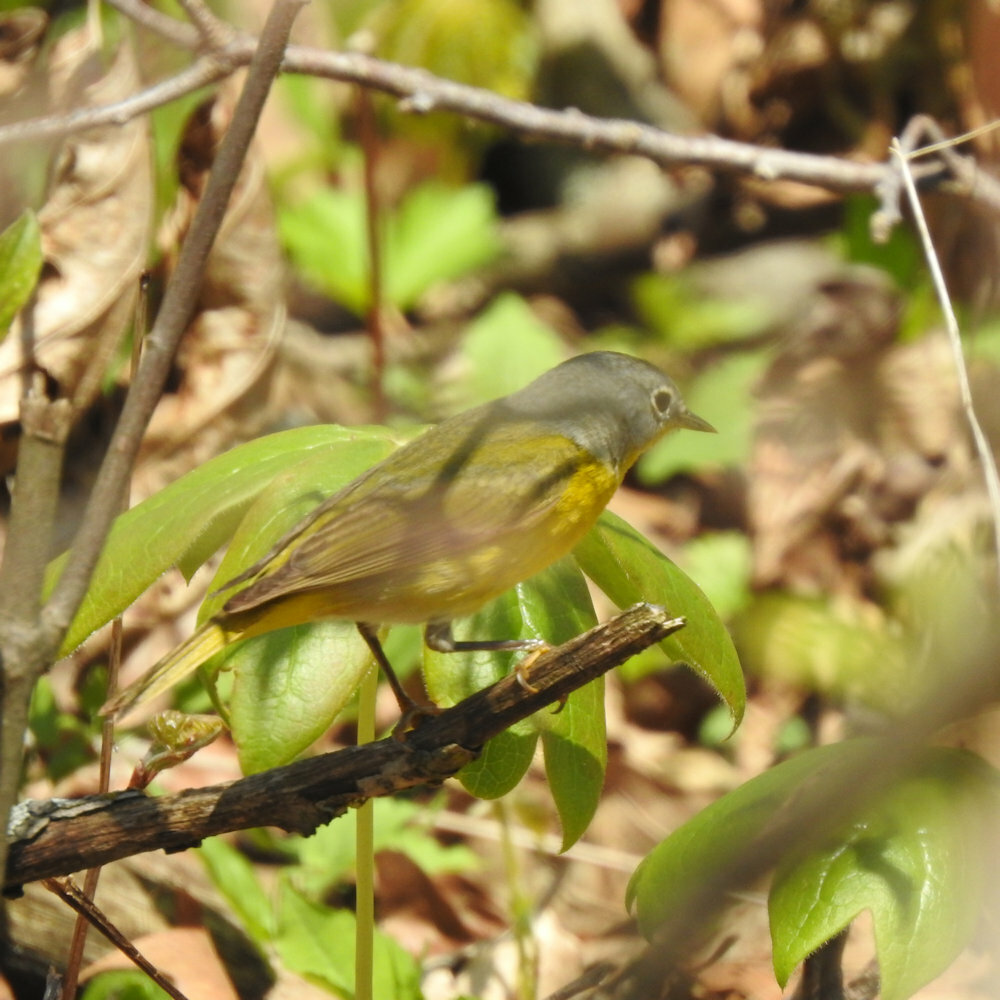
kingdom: Animalia
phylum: Chordata
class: Aves
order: Passeriformes
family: Parulidae
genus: Leiothlypis
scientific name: Leiothlypis ruficapilla
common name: Nashville warbler
